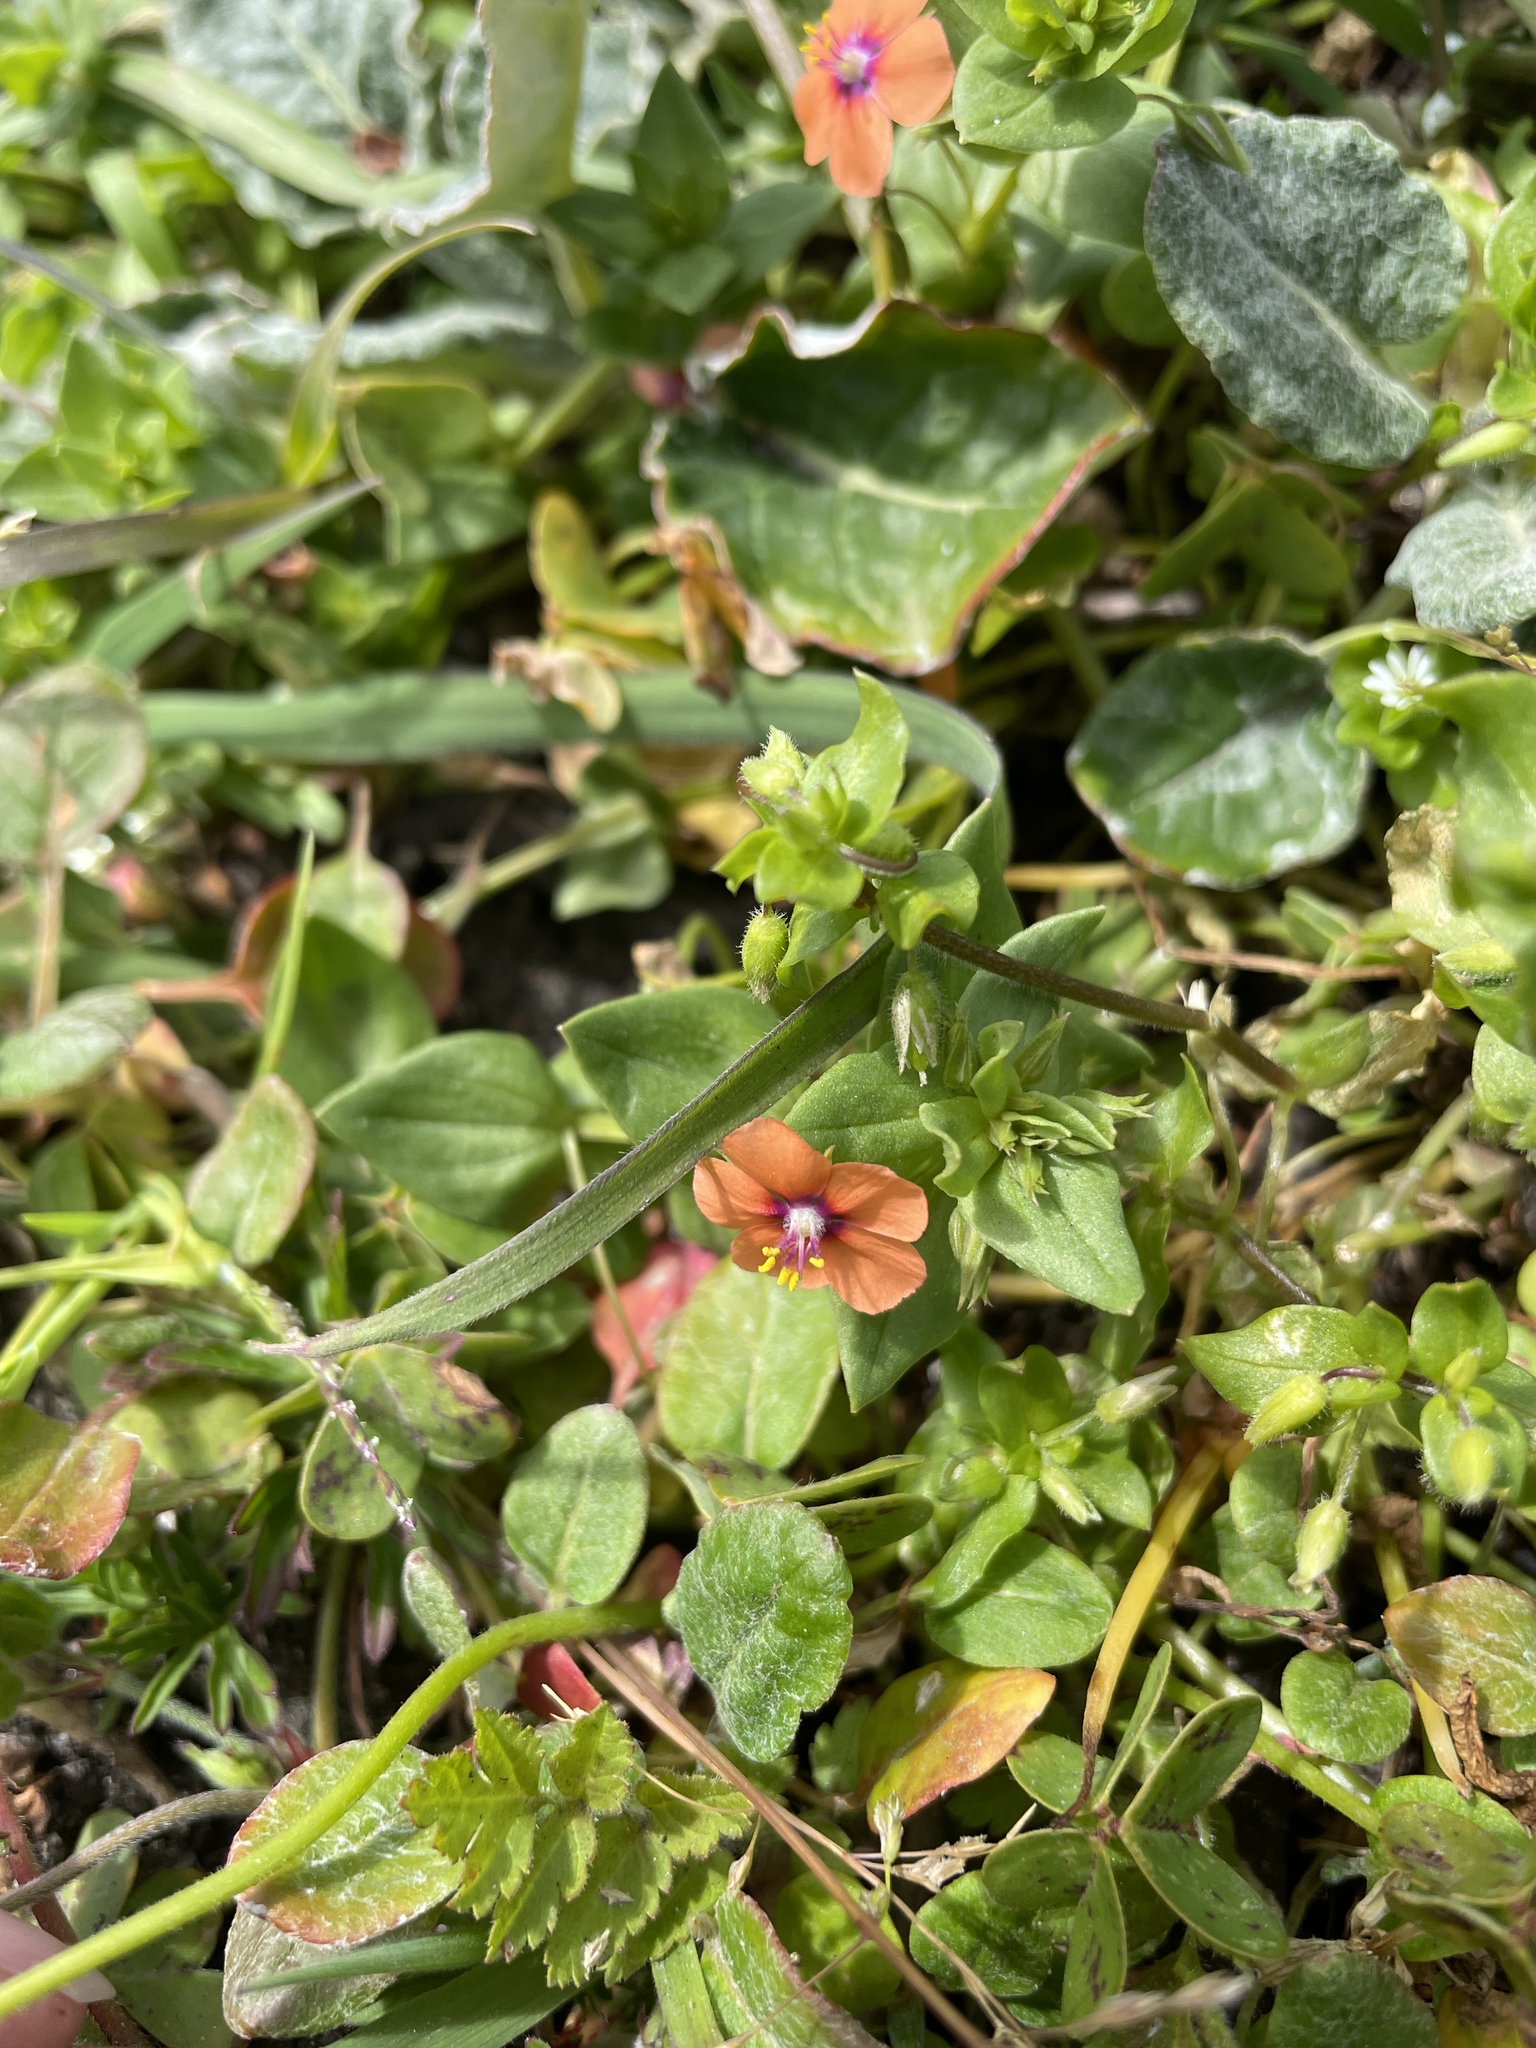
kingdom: Plantae
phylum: Tracheophyta
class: Magnoliopsida
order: Ericales
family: Primulaceae
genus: Lysimachia
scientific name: Lysimachia arvensis
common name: Scarlet pimpernel
